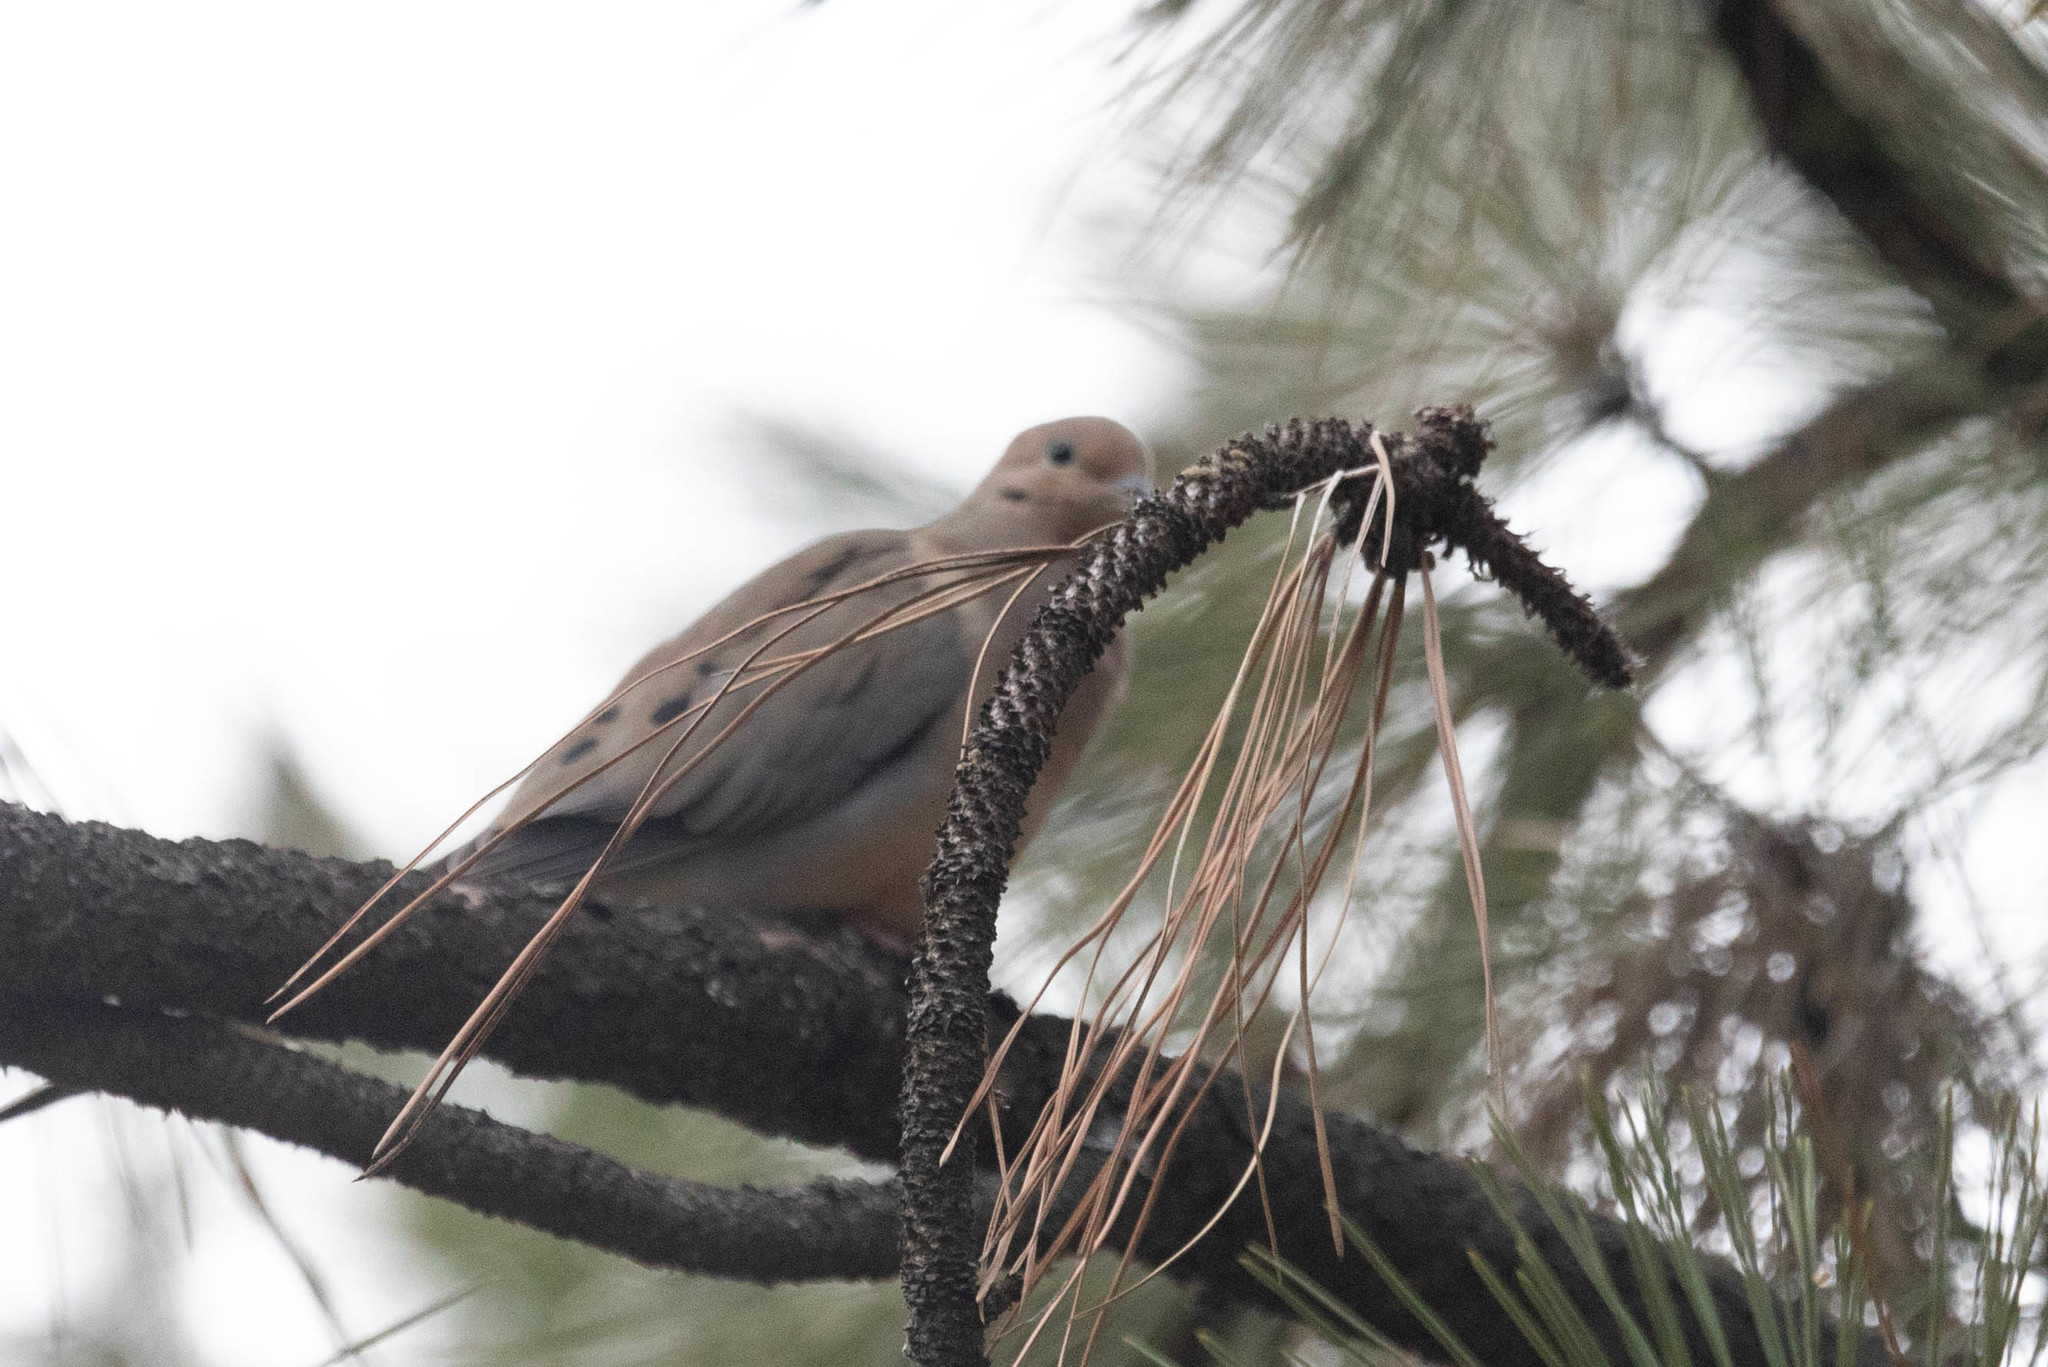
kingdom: Animalia
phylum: Chordata
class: Aves
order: Columbiformes
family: Columbidae
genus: Zenaida
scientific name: Zenaida macroura
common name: Mourning dove
